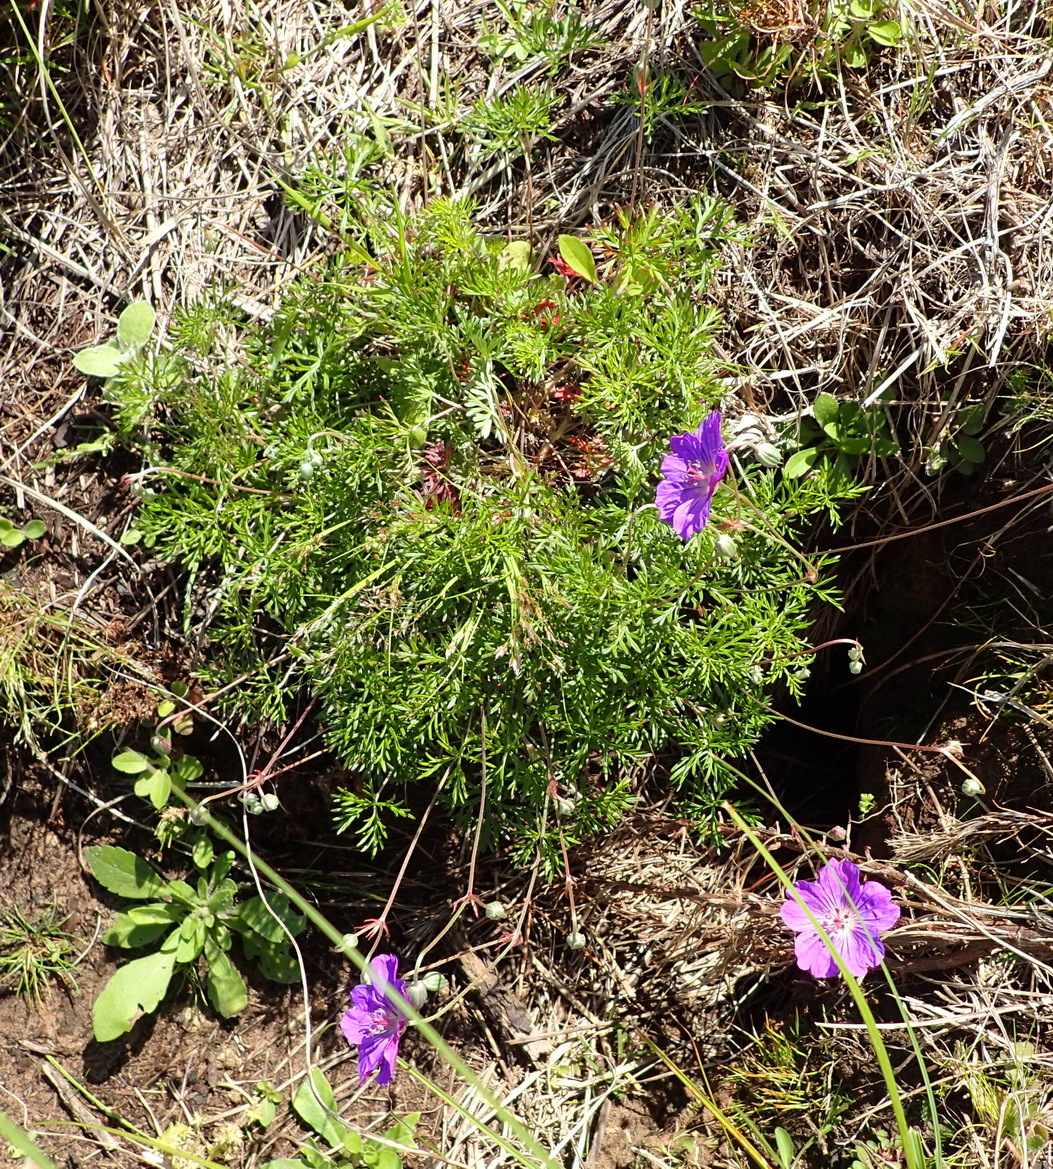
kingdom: Plantae
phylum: Tracheophyta
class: Magnoliopsida
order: Geraniales
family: Geraniaceae
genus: Geranium
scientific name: Geranium incanum
